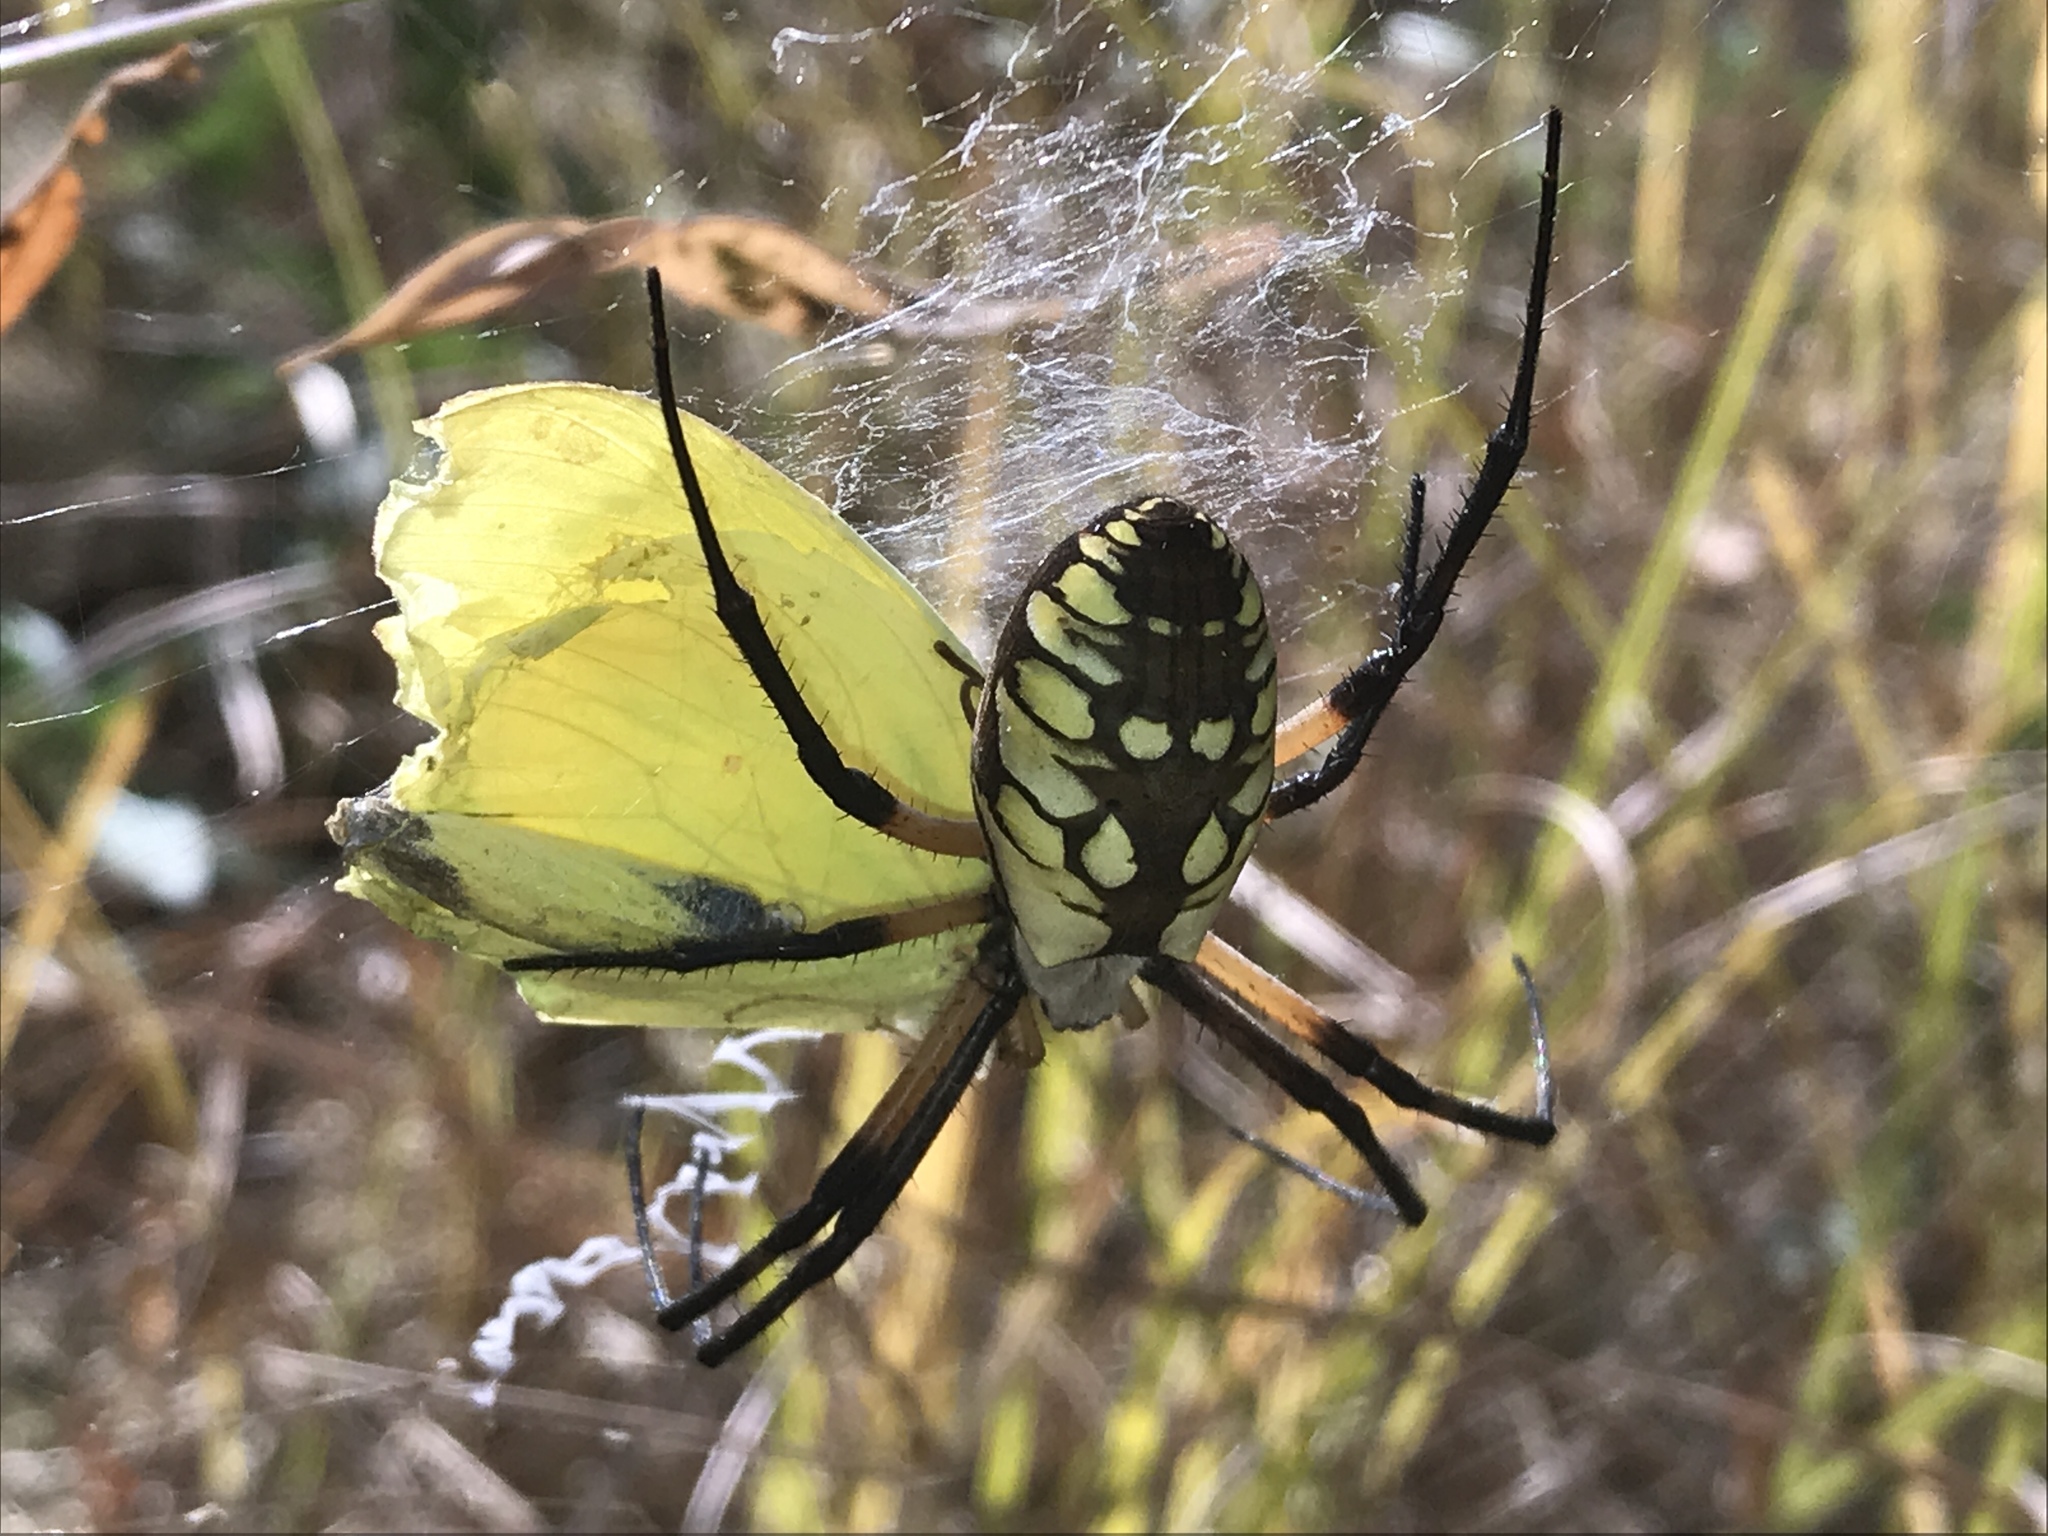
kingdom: Animalia
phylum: Arthropoda
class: Arachnida
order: Araneae
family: Araneidae
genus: Argiope
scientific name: Argiope aurantia
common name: Orb weavers
